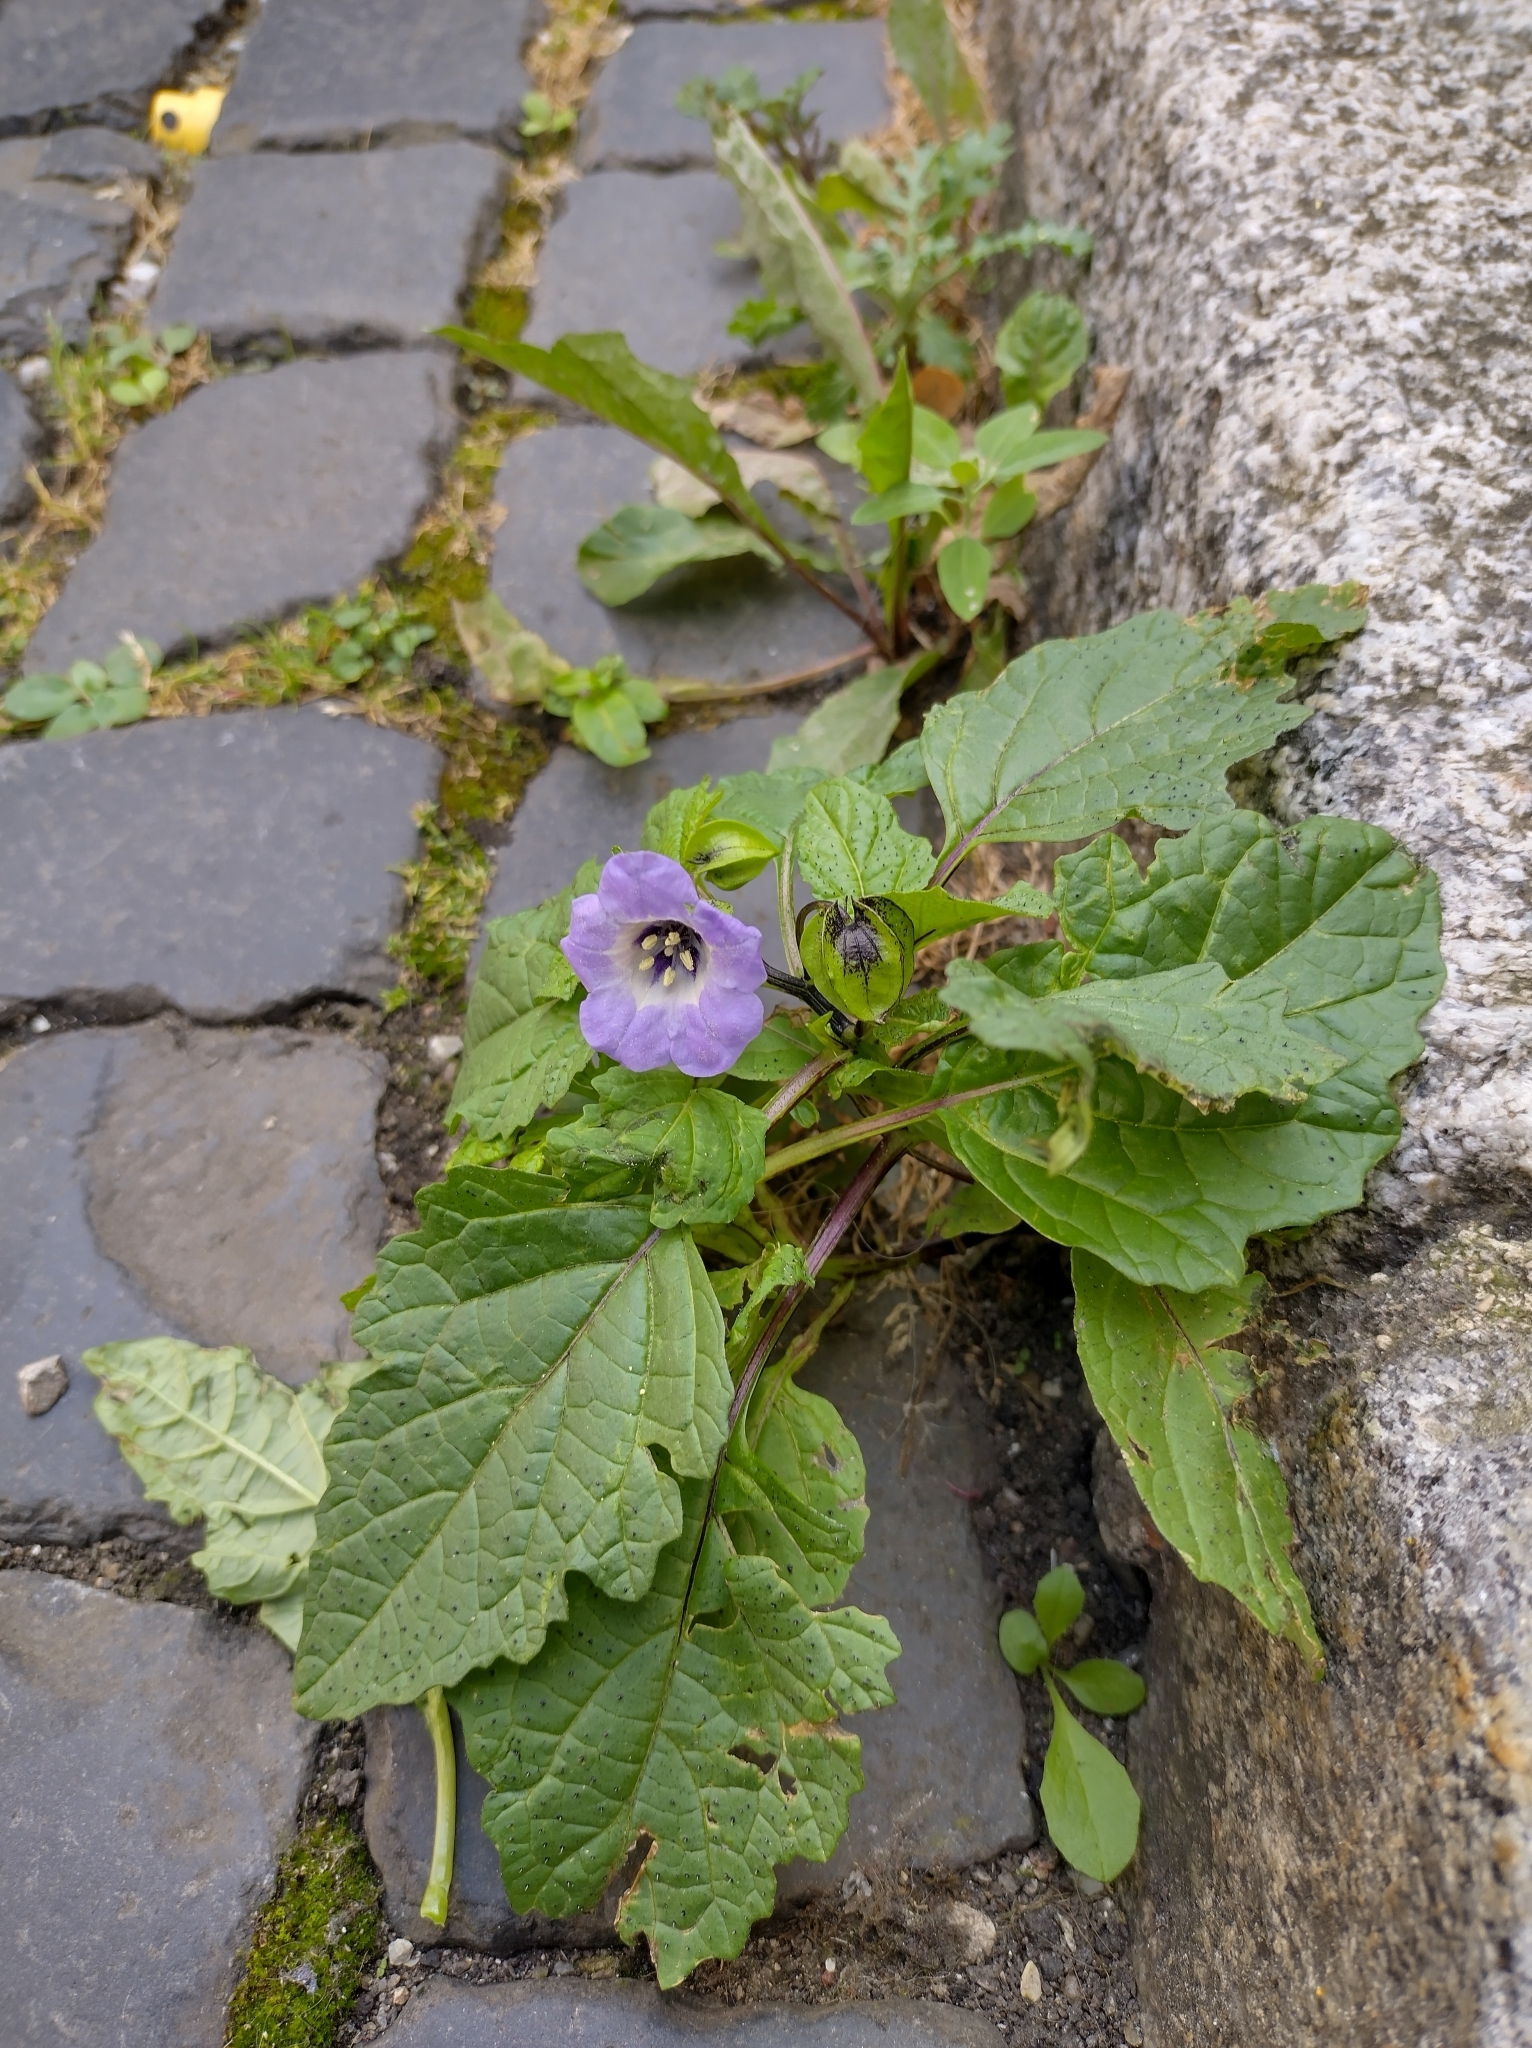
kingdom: Plantae
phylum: Tracheophyta
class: Magnoliopsida
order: Solanales
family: Solanaceae
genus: Nicandra
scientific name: Nicandra physalodes
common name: Apple-of-peru
